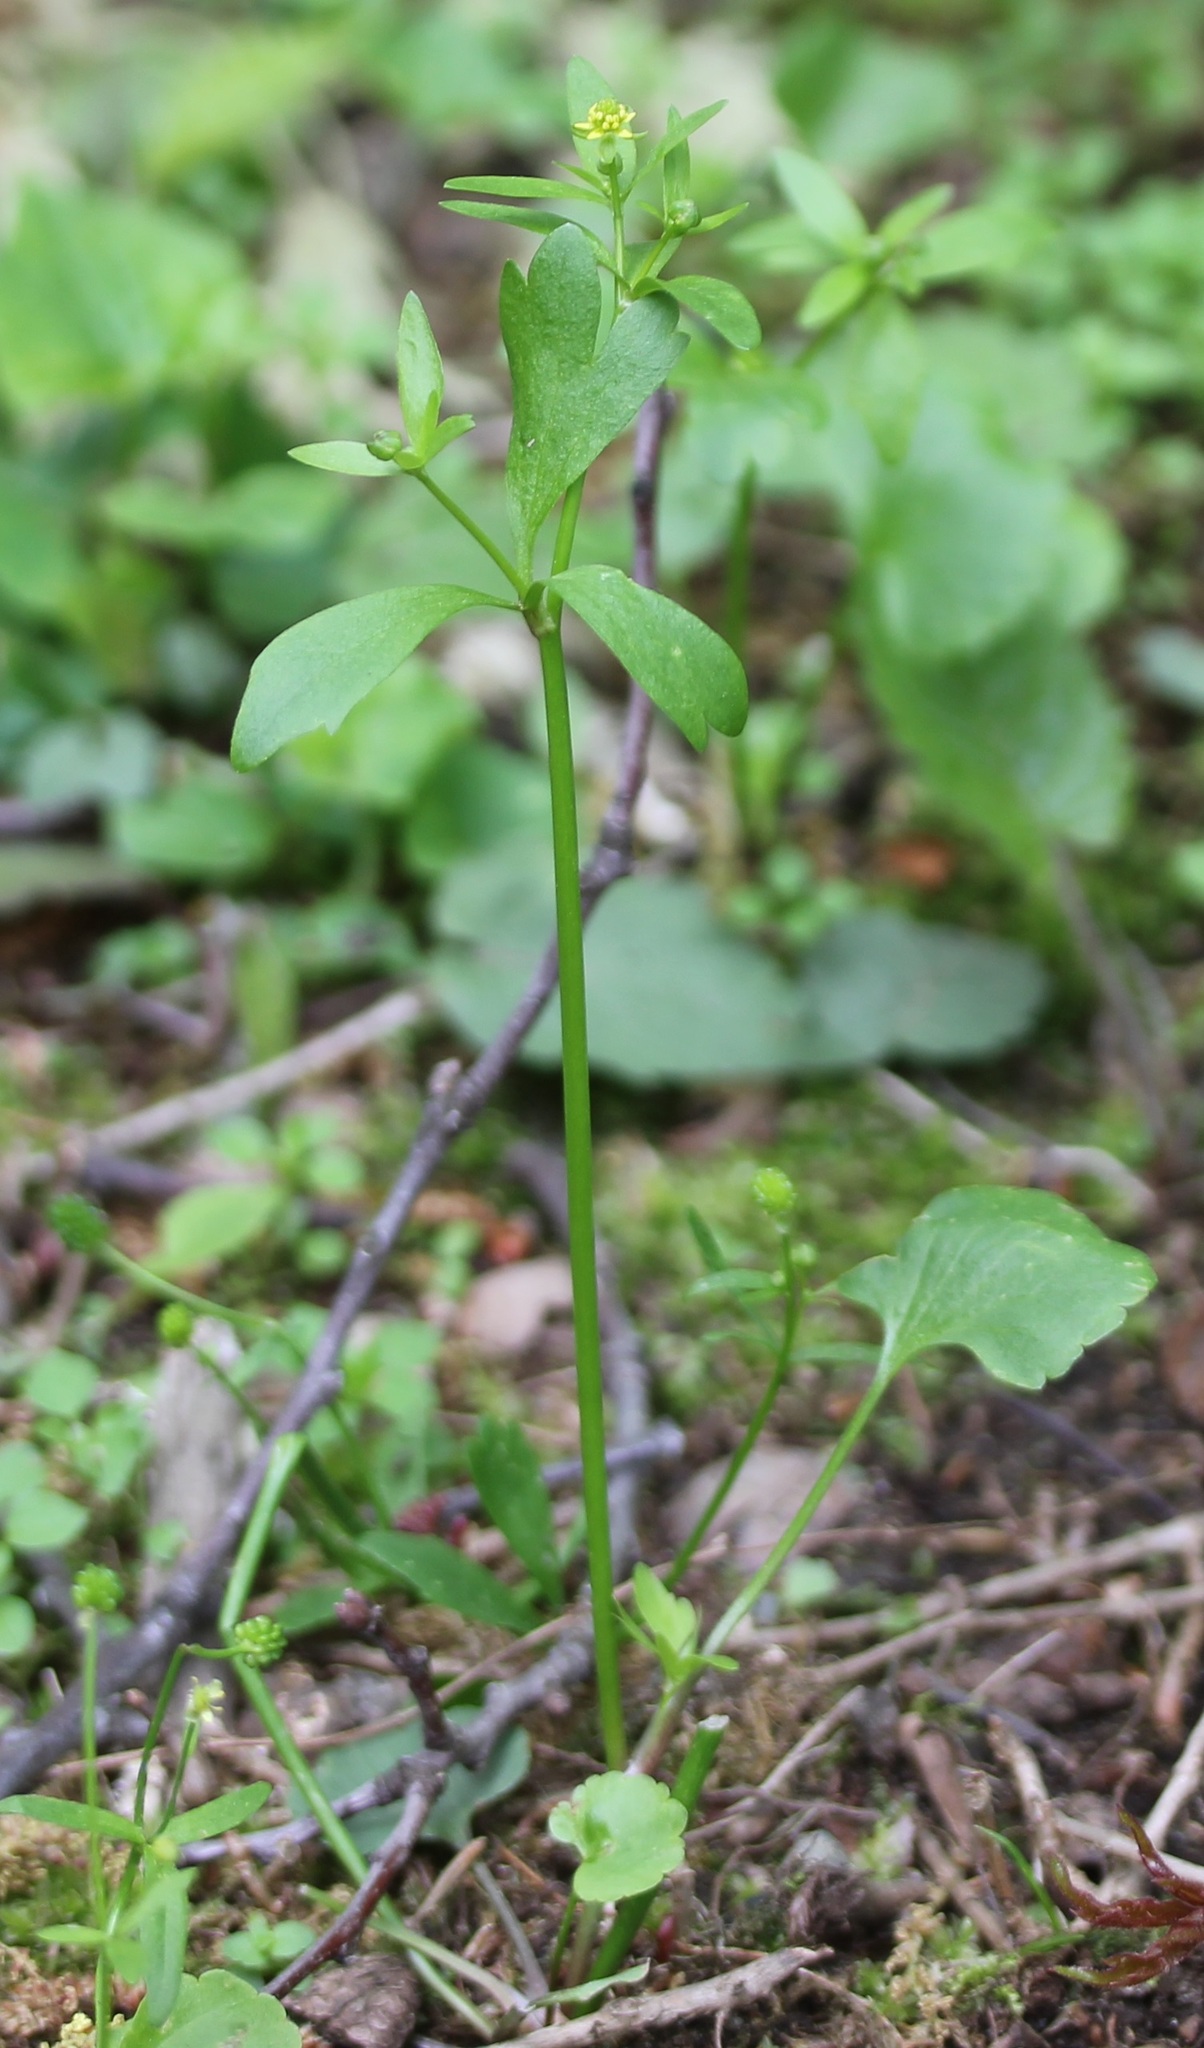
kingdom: Plantae
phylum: Tracheophyta
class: Magnoliopsida
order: Ranunculales
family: Ranunculaceae
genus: Ranunculus
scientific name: Ranunculus abortivus
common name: Early wood buttercup
